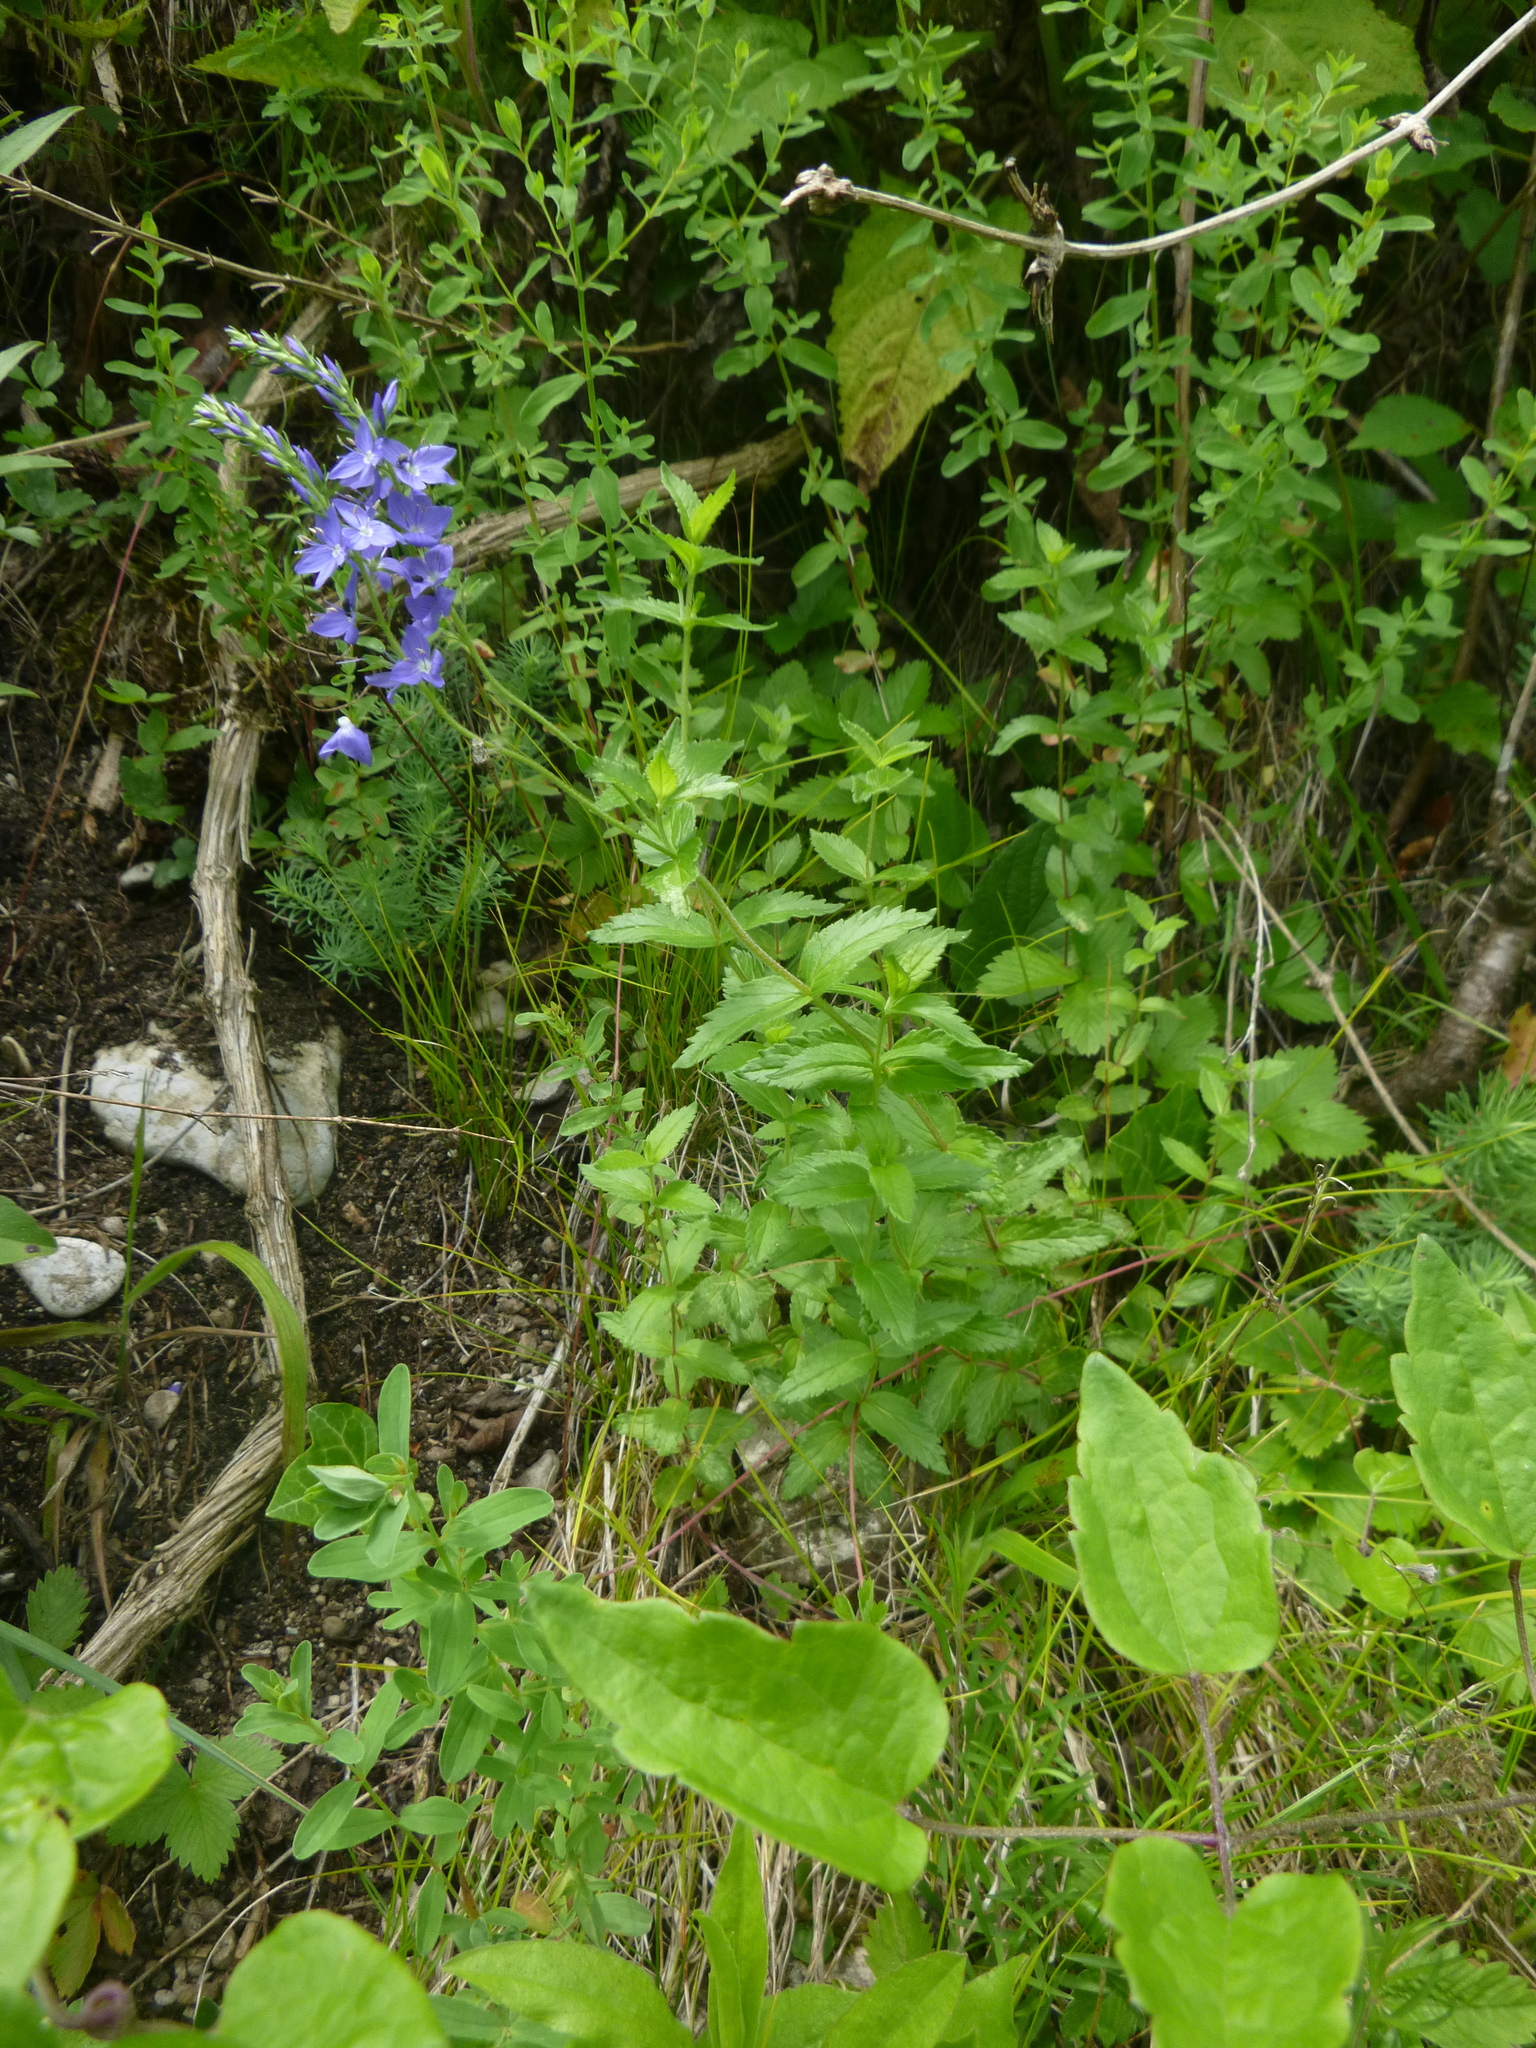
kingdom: Plantae
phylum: Tracheophyta
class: Magnoliopsida
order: Lamiales
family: Plantaginaceae
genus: Veronica
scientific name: Veronica teucrium
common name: Large speedwell
